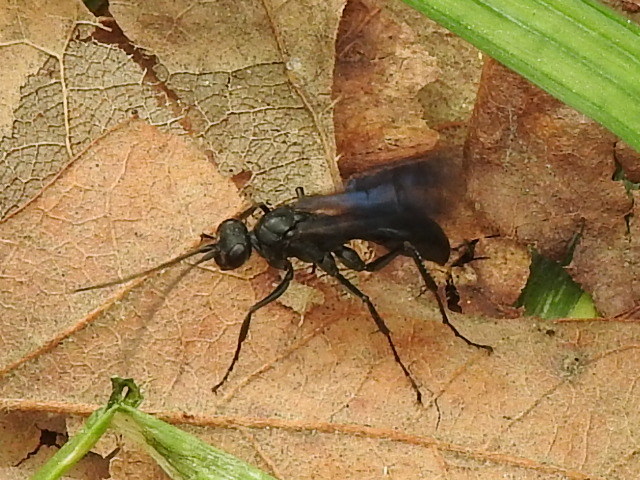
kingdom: Animalia
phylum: Arthropoda
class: Insecta
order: Hymenoptera
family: Pompilidae
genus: Priocnemis
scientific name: Priocnemis minorata
